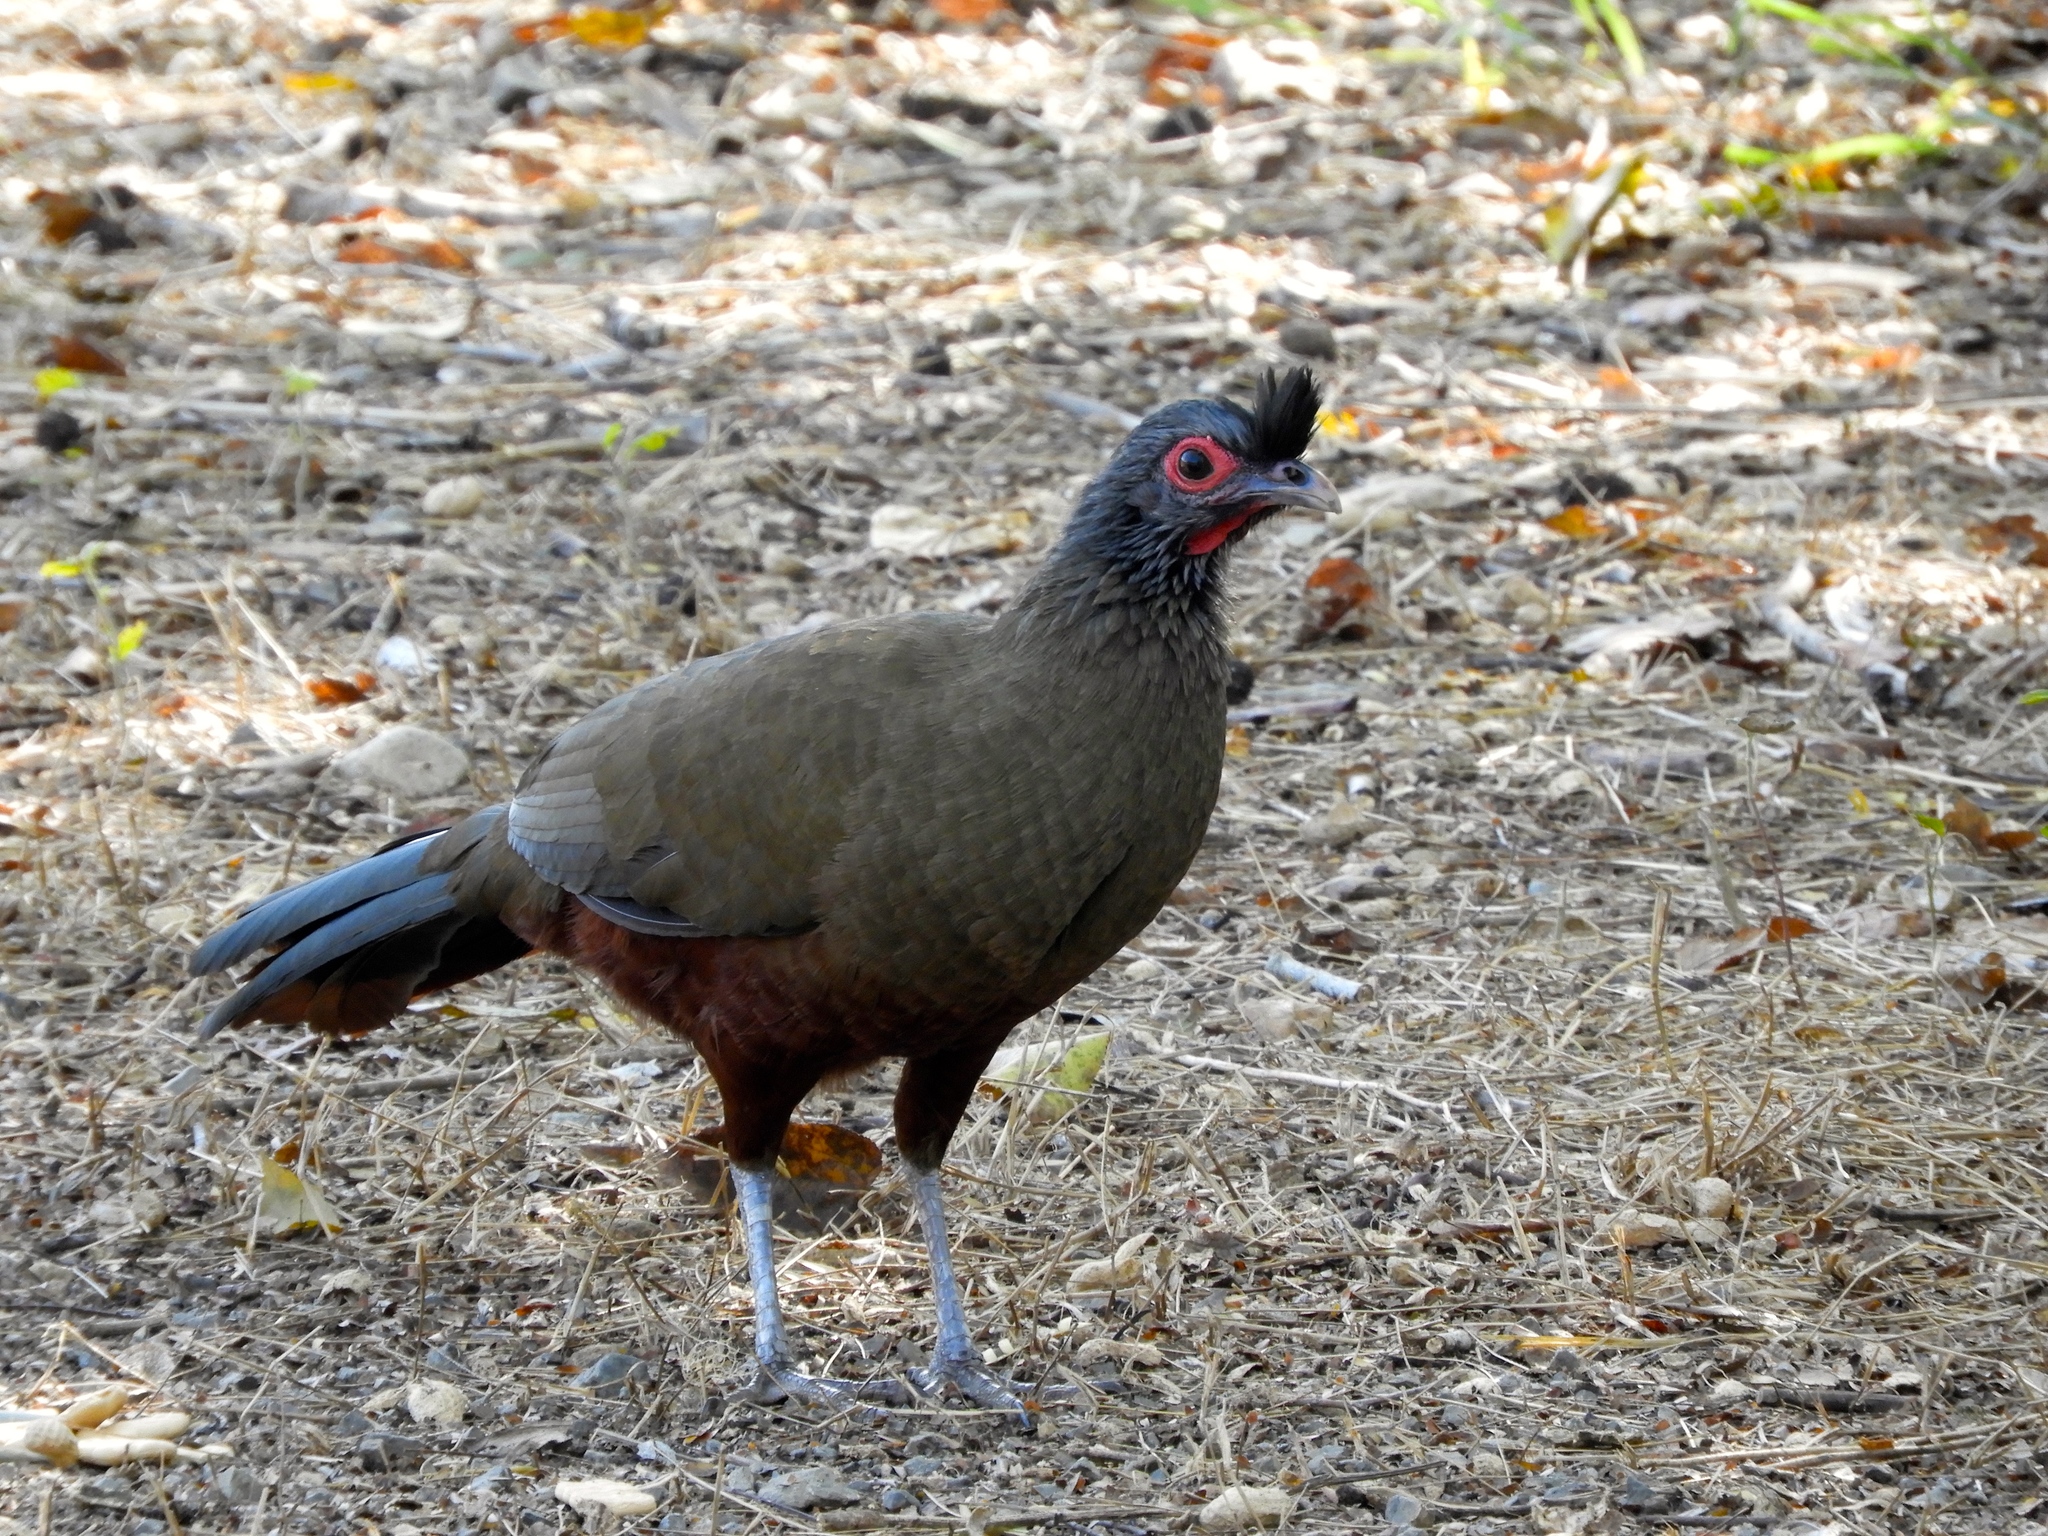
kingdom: Animalia
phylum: Chordata
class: Aves
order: Galliformes
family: Cracidae
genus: Ortalis
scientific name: Ortalis wagleri
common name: Rufous-bellied chachalaca
